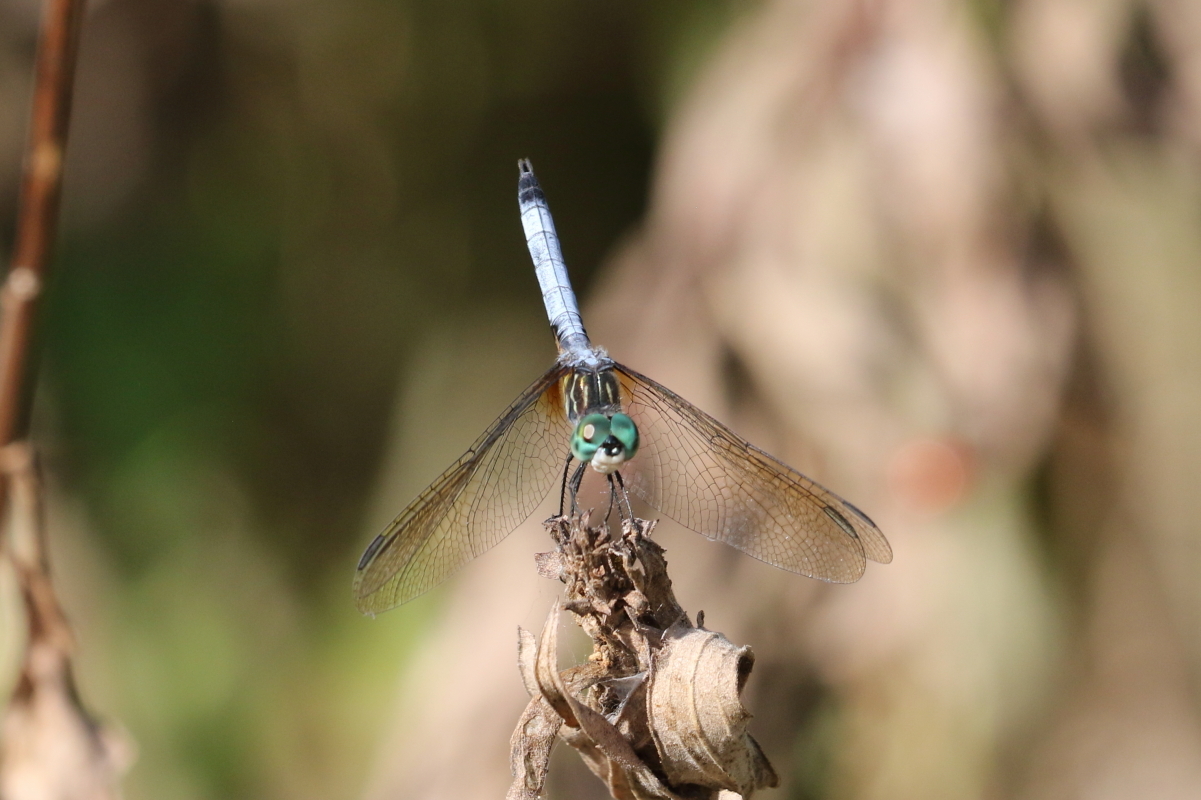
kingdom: Animalia
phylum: Arthropoda
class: Insecta
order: Odonata
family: Libellulidae
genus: Pachydiplax
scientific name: Pachydiplax longipennis
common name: Blue dasher
